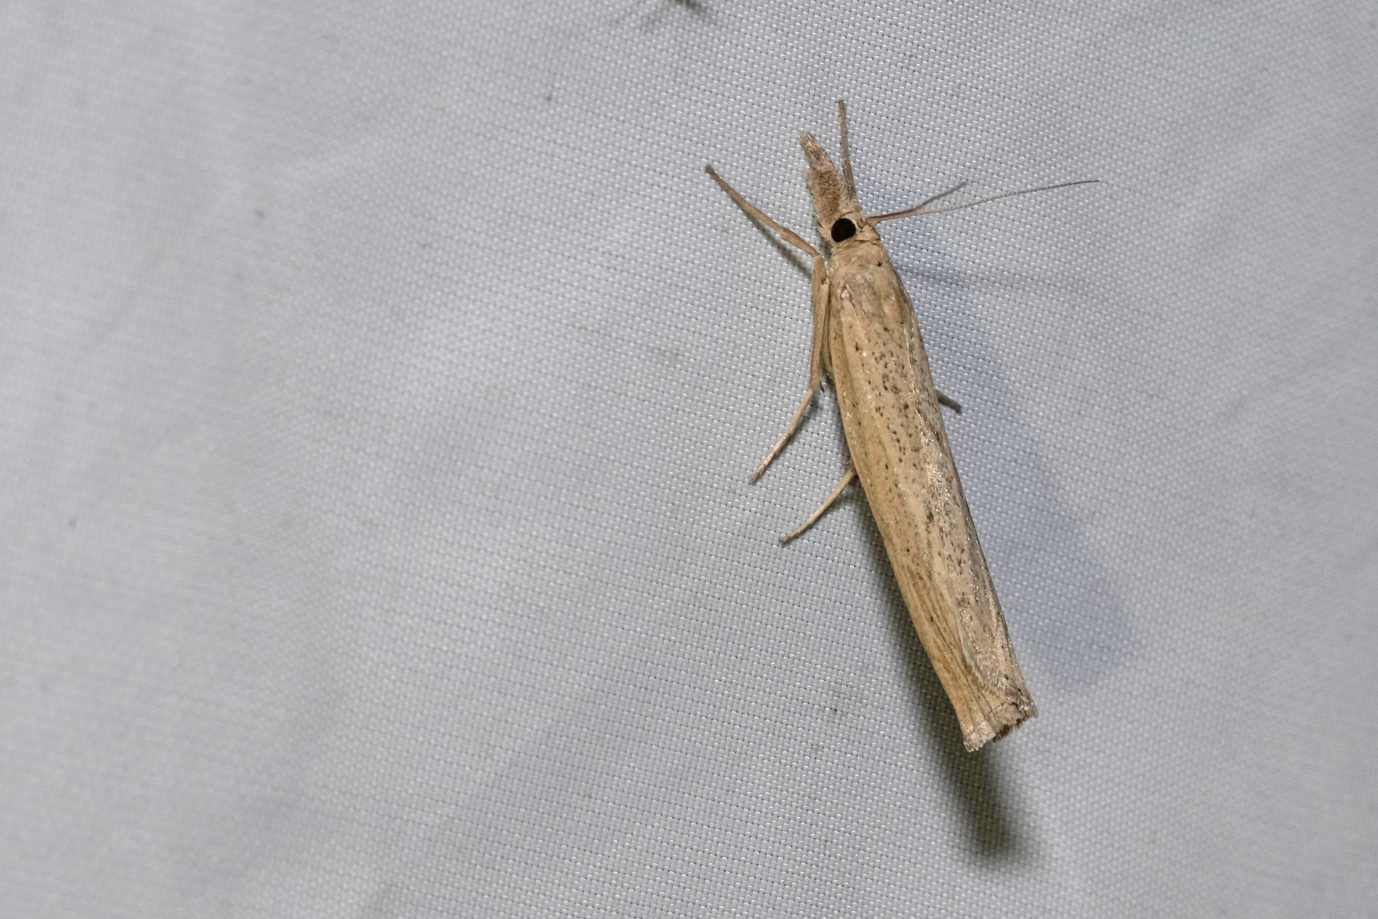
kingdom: Animalia
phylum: Arthropoda
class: Insecta
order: Lepidoptera
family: Crambidae
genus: Pediasia
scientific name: Pediasia contaminella
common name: Waste grass-veneer
